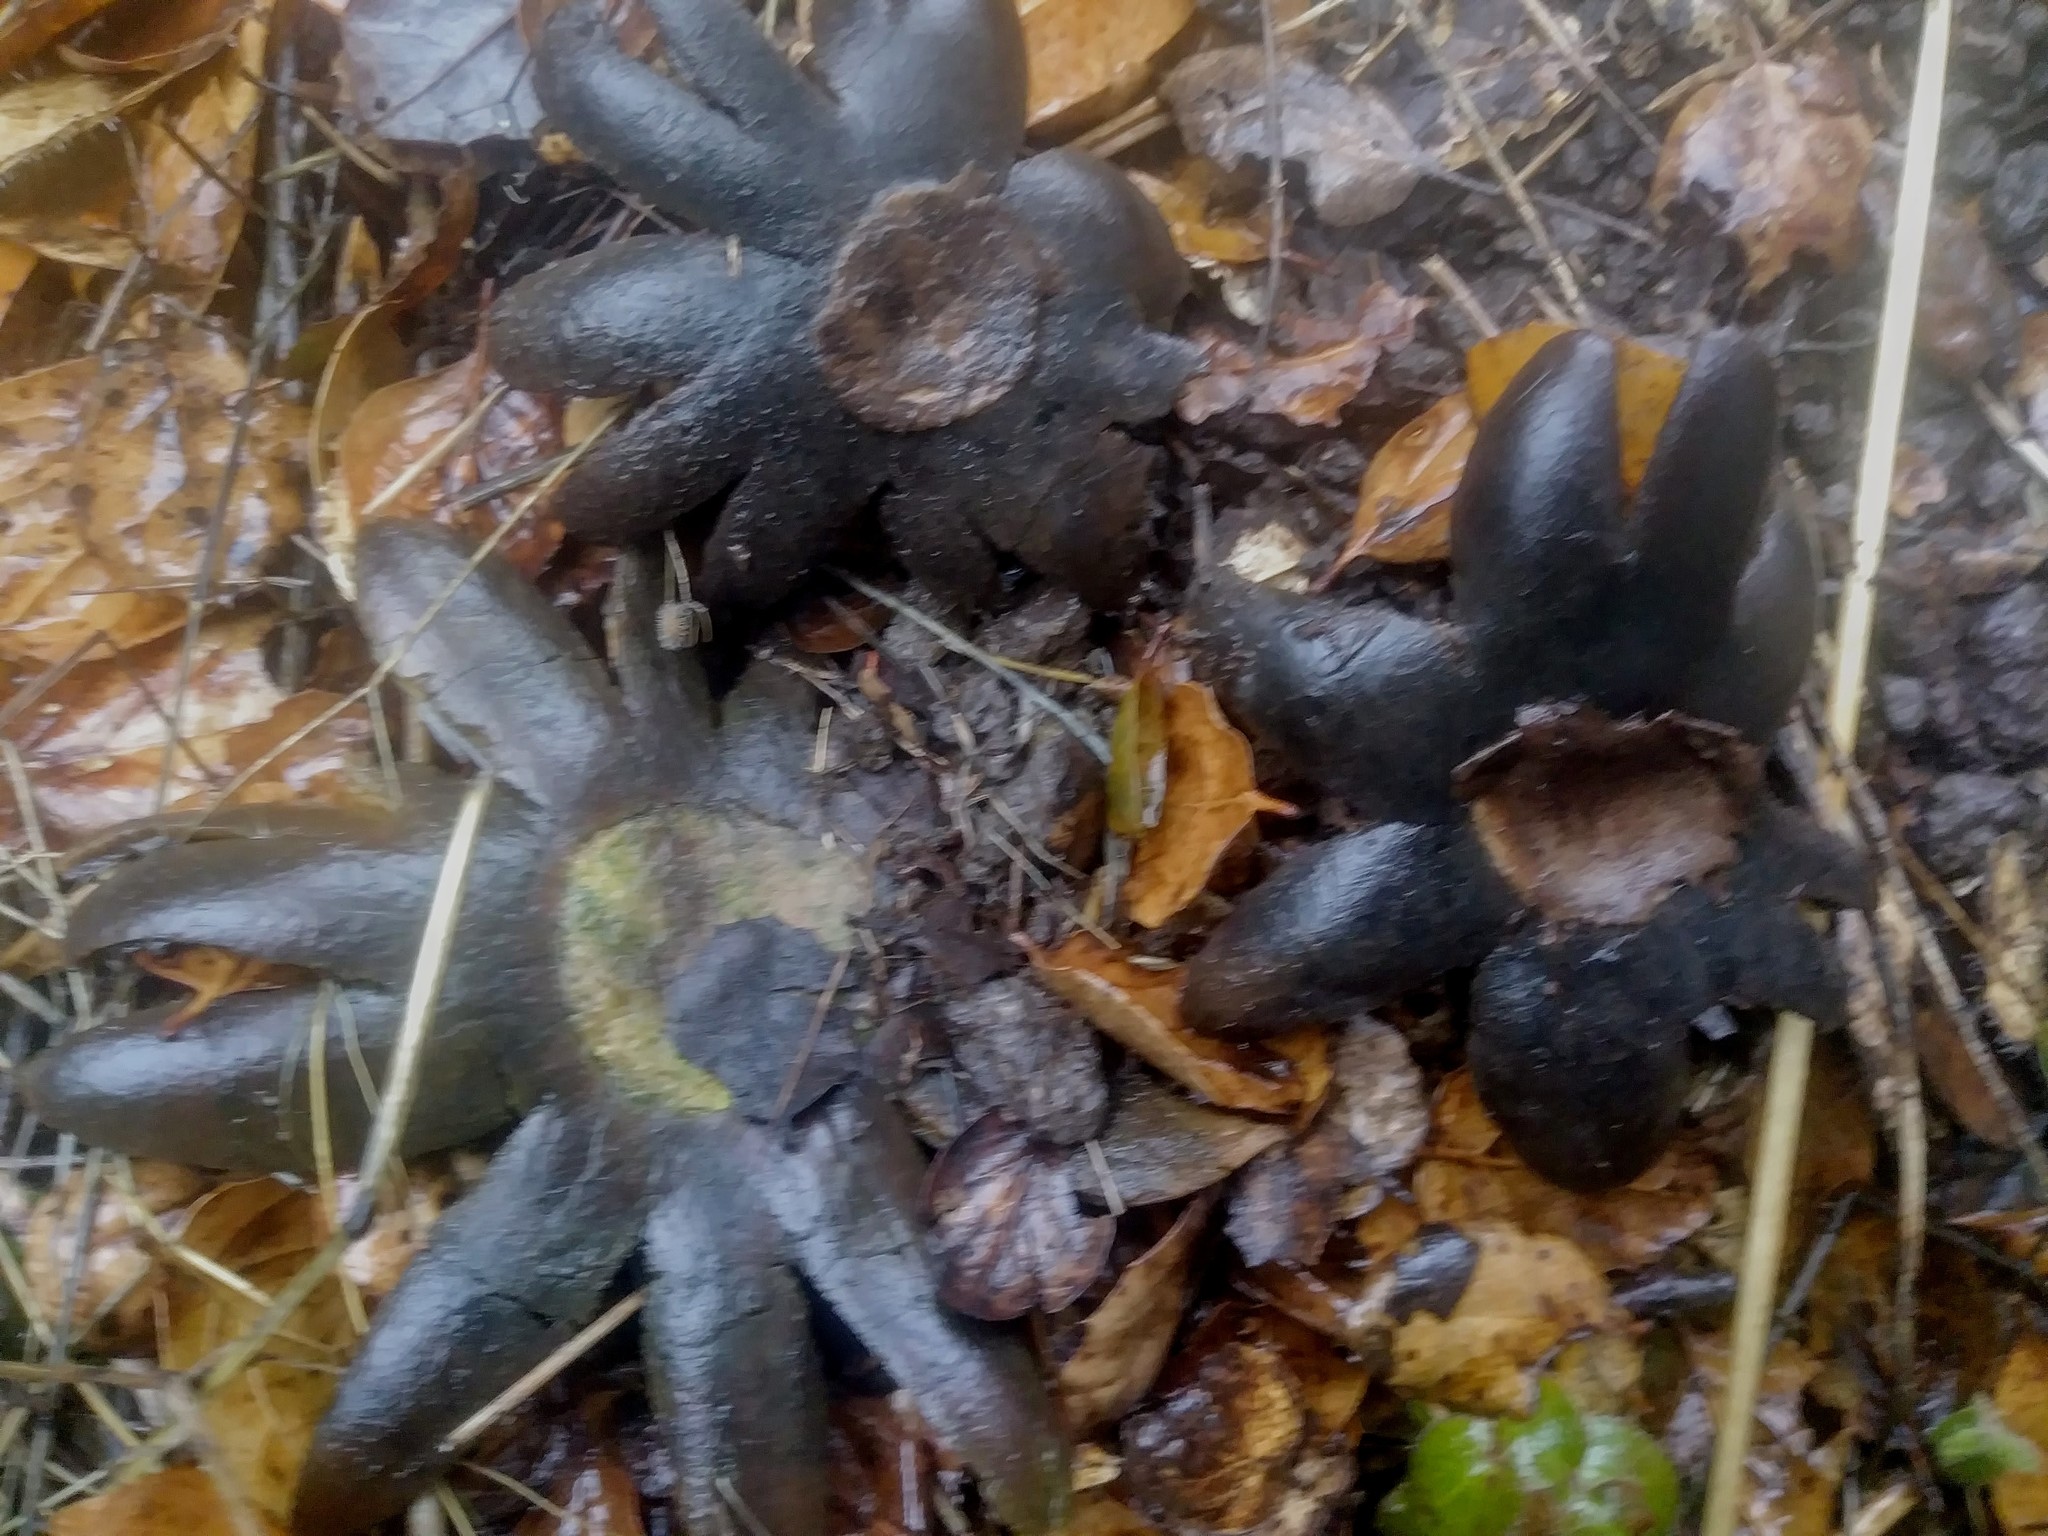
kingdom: Fungi
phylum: Basidiomycota
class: Agaricomycetes
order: Boletales
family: Diplocystidiaceae
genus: Astraeus
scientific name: Astraeus hygrometricus
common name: Barometer earthstar
